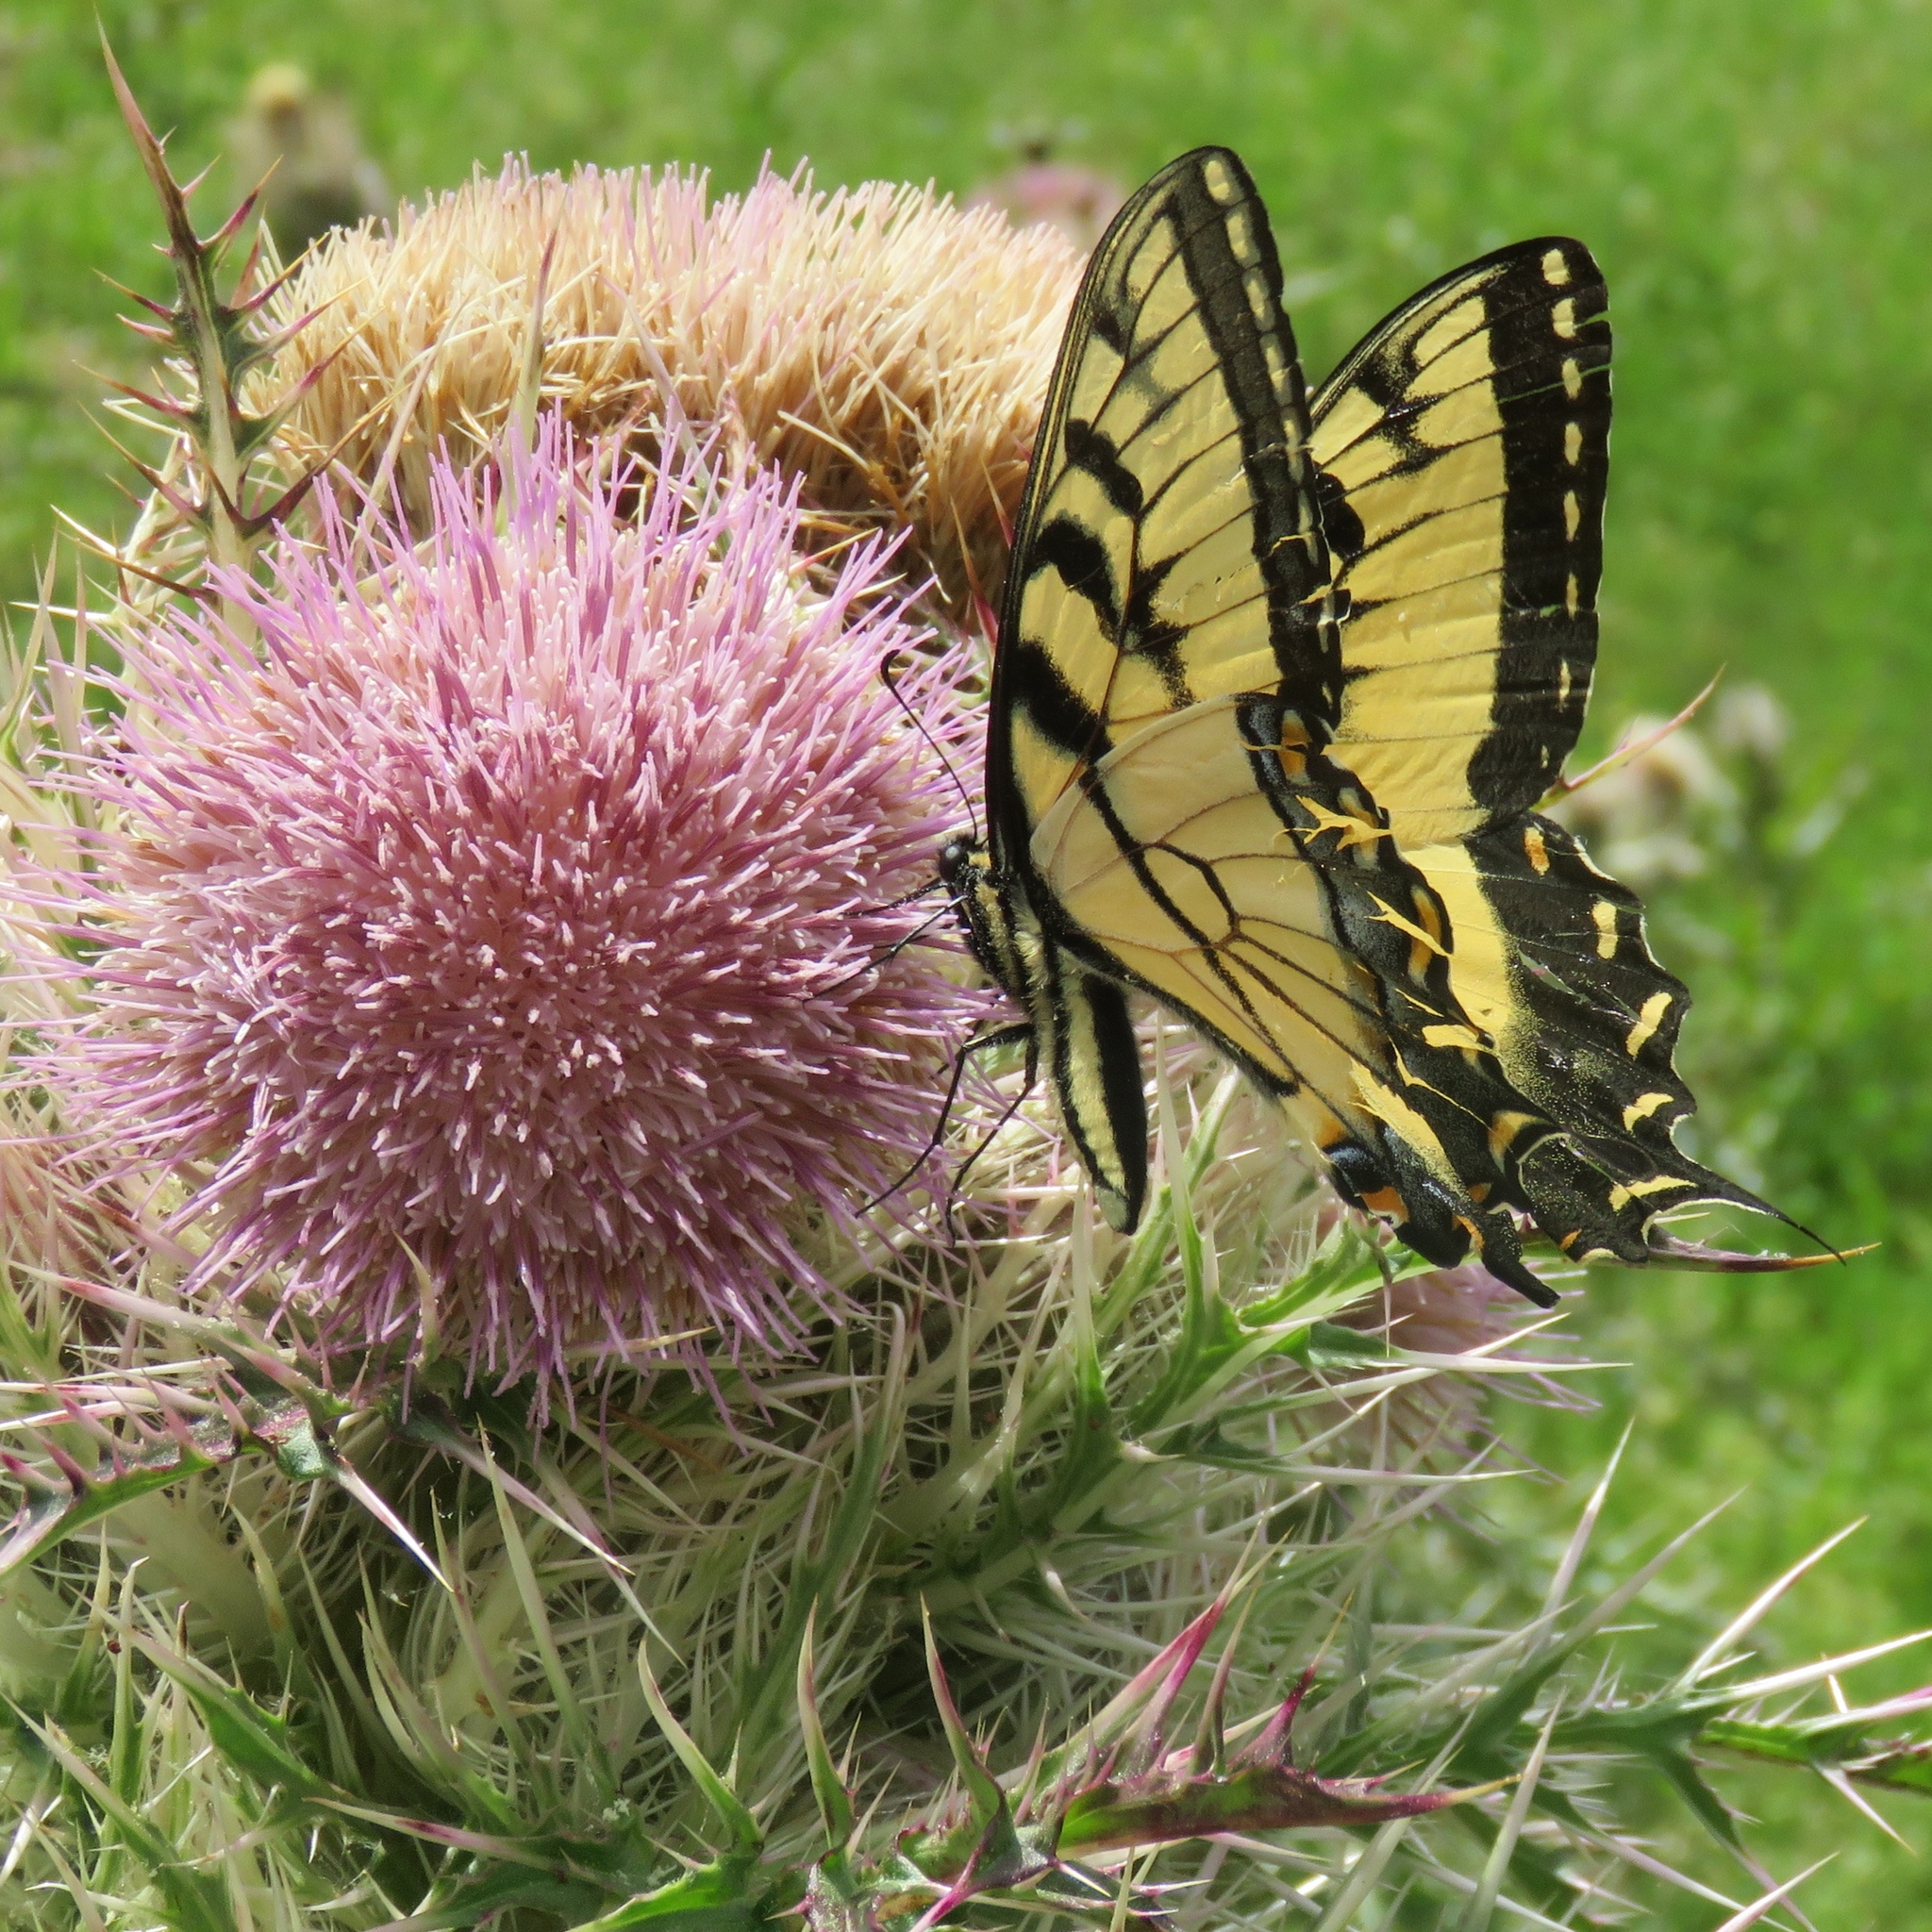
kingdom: Animalia
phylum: Arthropoda
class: Insecta
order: Lepidoptera
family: Papilionidae
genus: Papilio
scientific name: Papilio glaucus
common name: Tiger swallowtail
